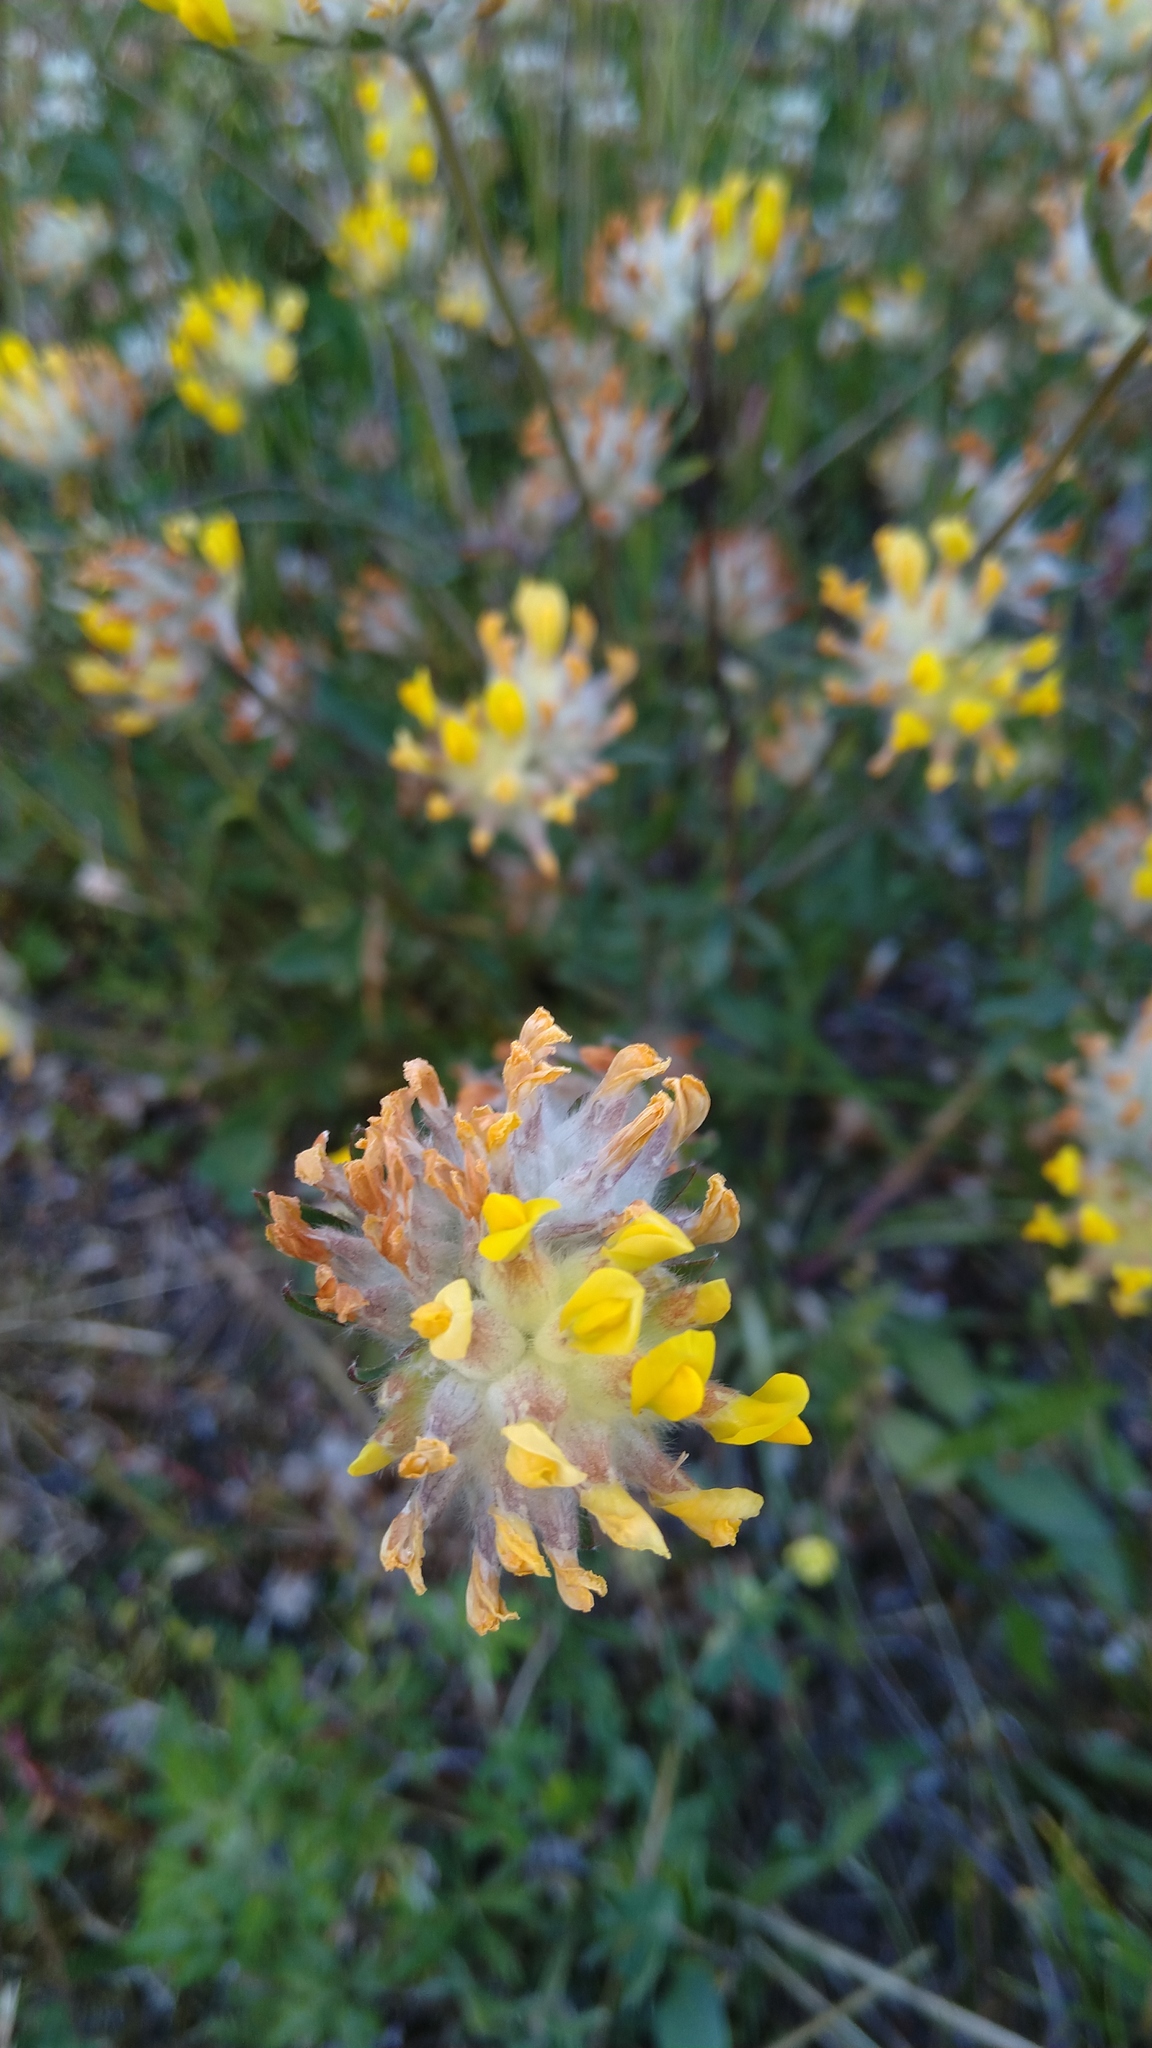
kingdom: Plantae
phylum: Tracheophyta
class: Magnoliopsida
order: Fabales
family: Fabaceae
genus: Anthyllis
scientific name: Anthyllis vulneraria
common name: Kidney vetch
